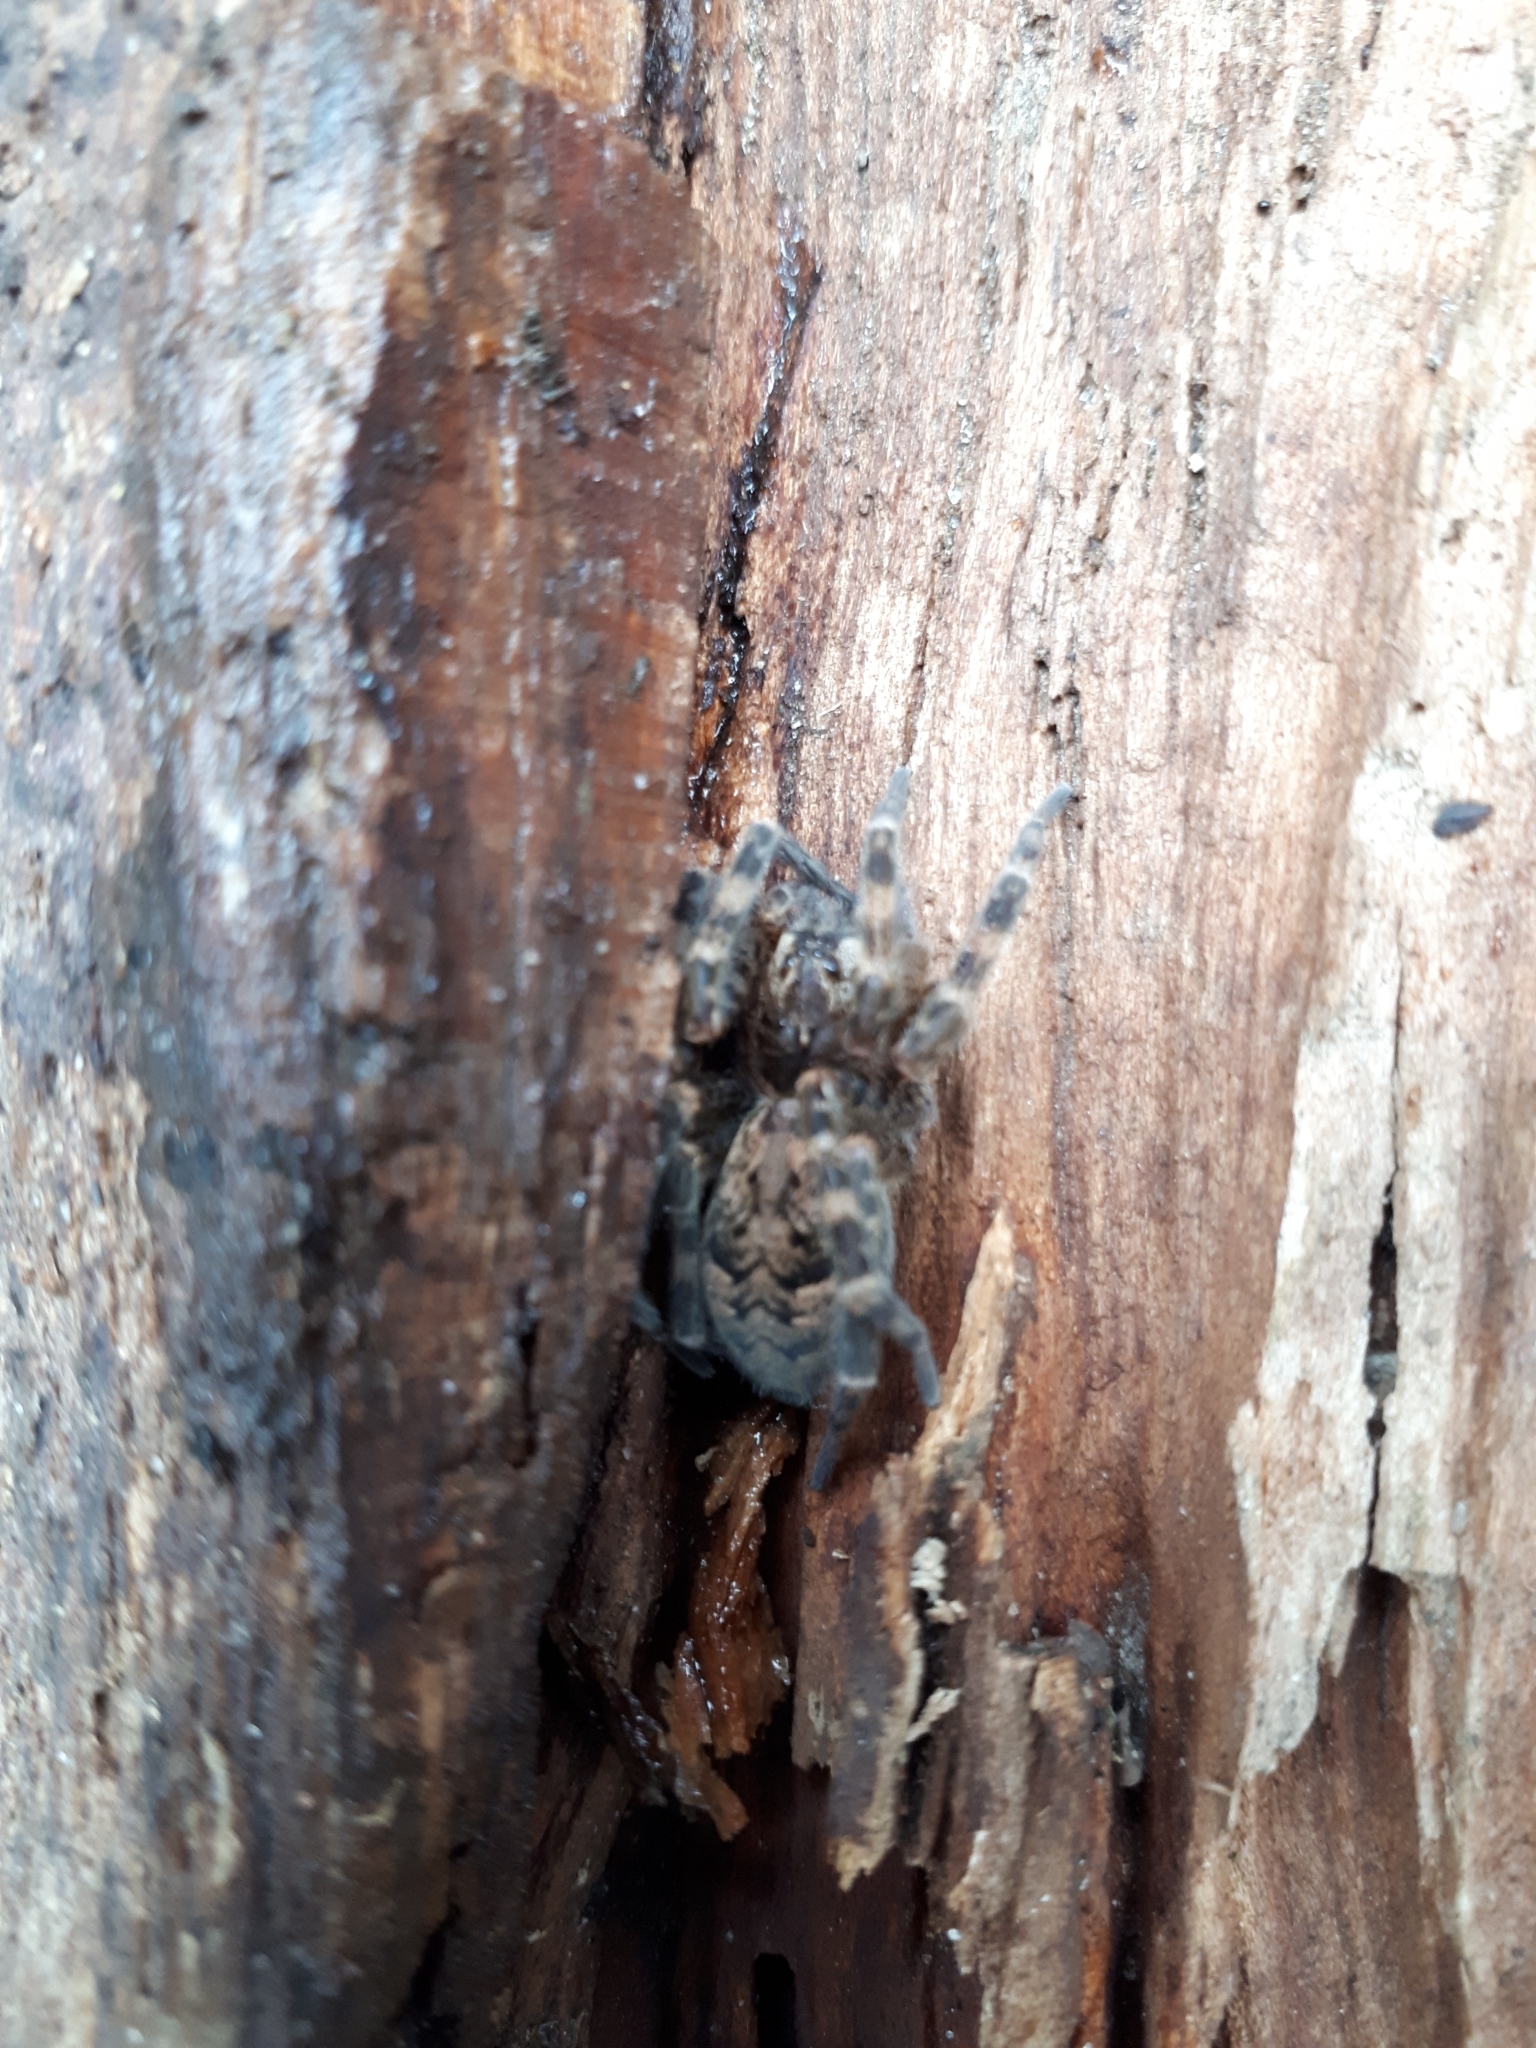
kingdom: Animalia
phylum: Arthropoda
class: Arachnida
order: Araneae
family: Pisauridae
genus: Dolomedes
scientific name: Dolomedes tenebrosus
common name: Dark fishing spider
